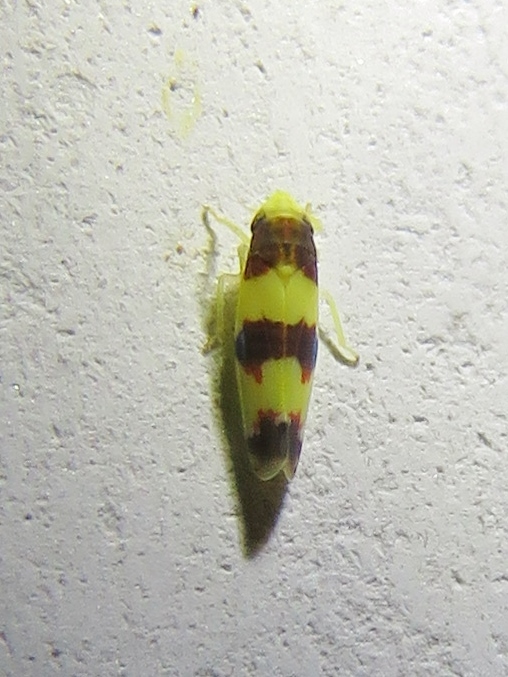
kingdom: Animalia
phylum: Arthropoda
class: Insecta
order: Hemiptera
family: Cicadellidae
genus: Erythroneura
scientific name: Erythroneura bistrata
